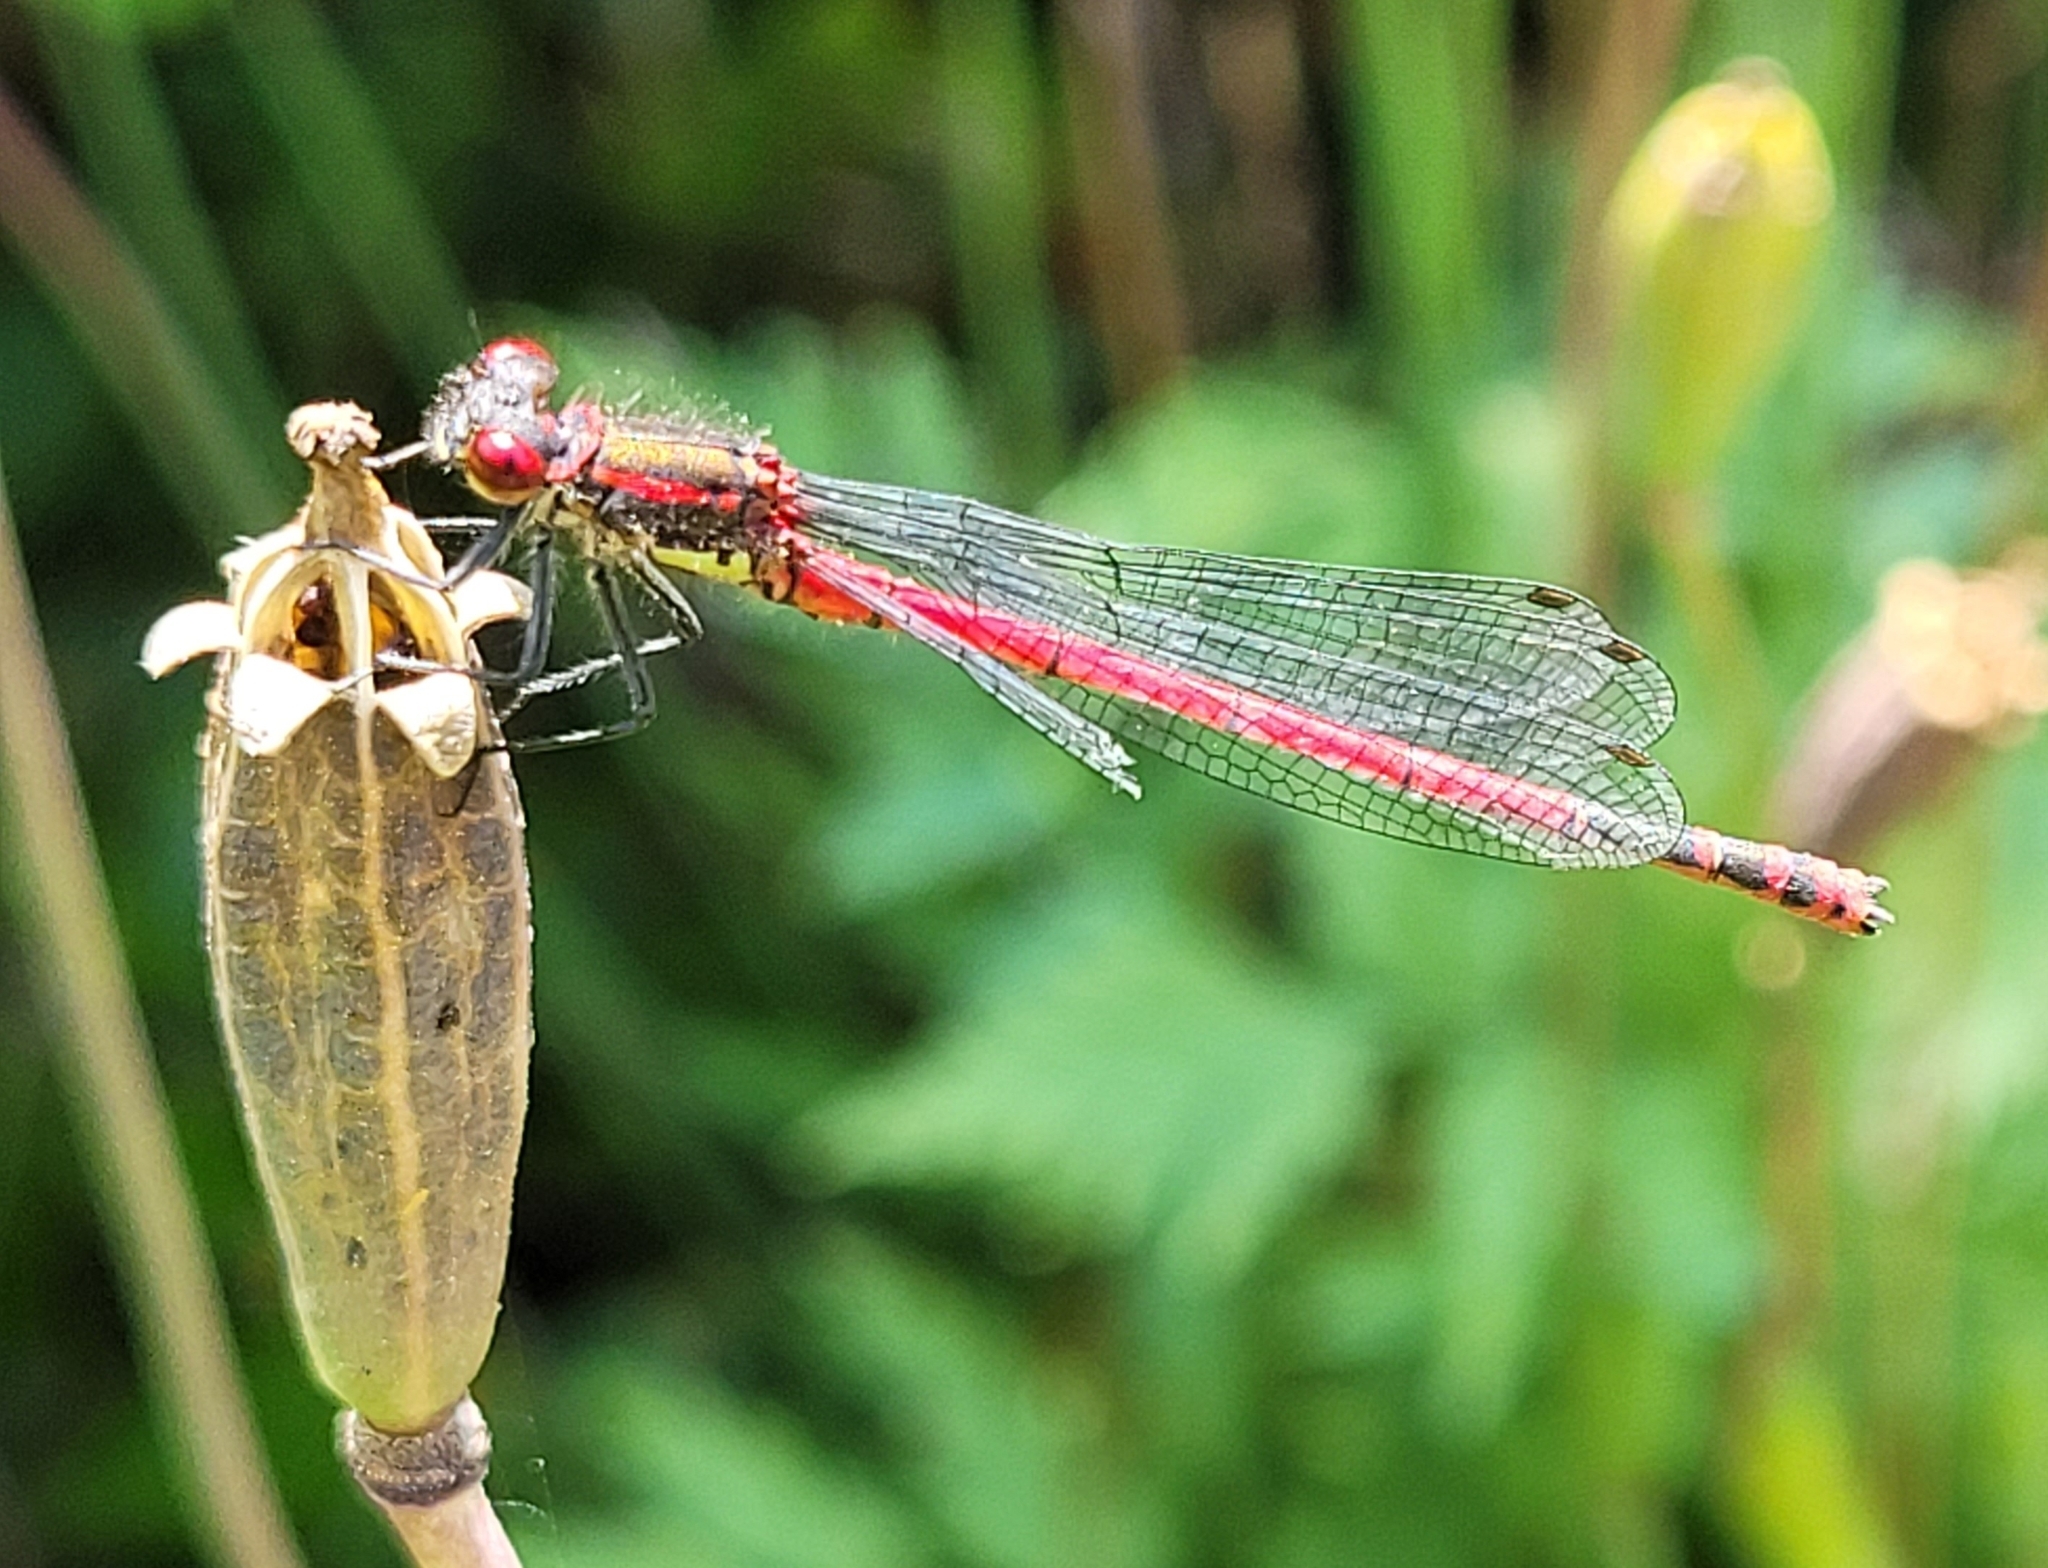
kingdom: Animalia
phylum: Arthropoda
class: Insecta
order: Odonata
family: Coenagrionidae
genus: Pyrrhosoma
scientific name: Pyrrhosoma nymphula
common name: Large red damsel
